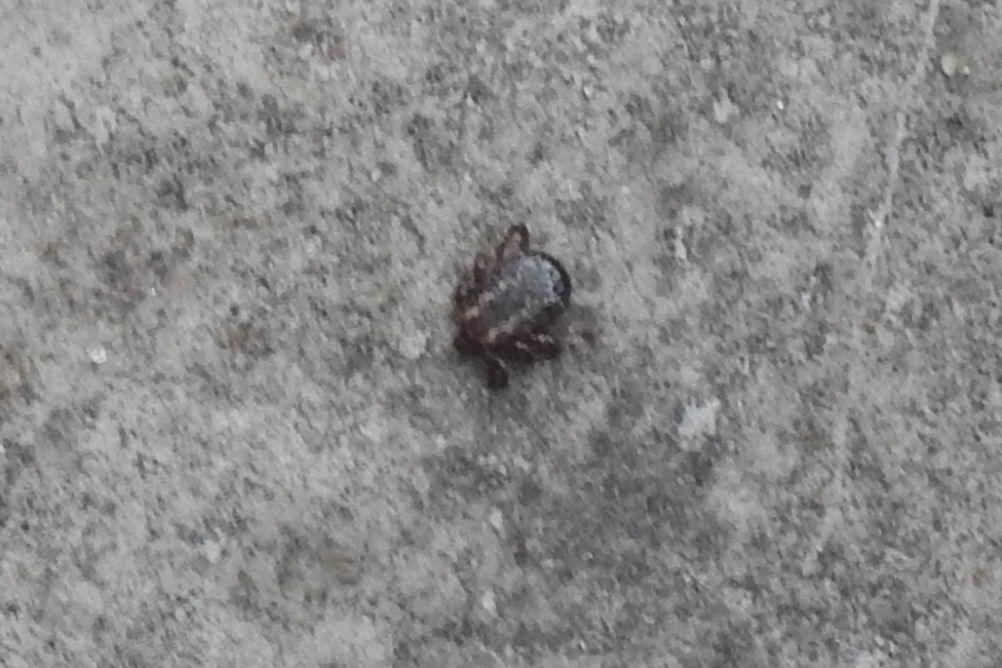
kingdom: Animalia
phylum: Arthropoda
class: Arachnida
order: Ixodida
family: Ixodidae
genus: Dermacentor
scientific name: Dermacentor variabilis
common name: American dog tick
